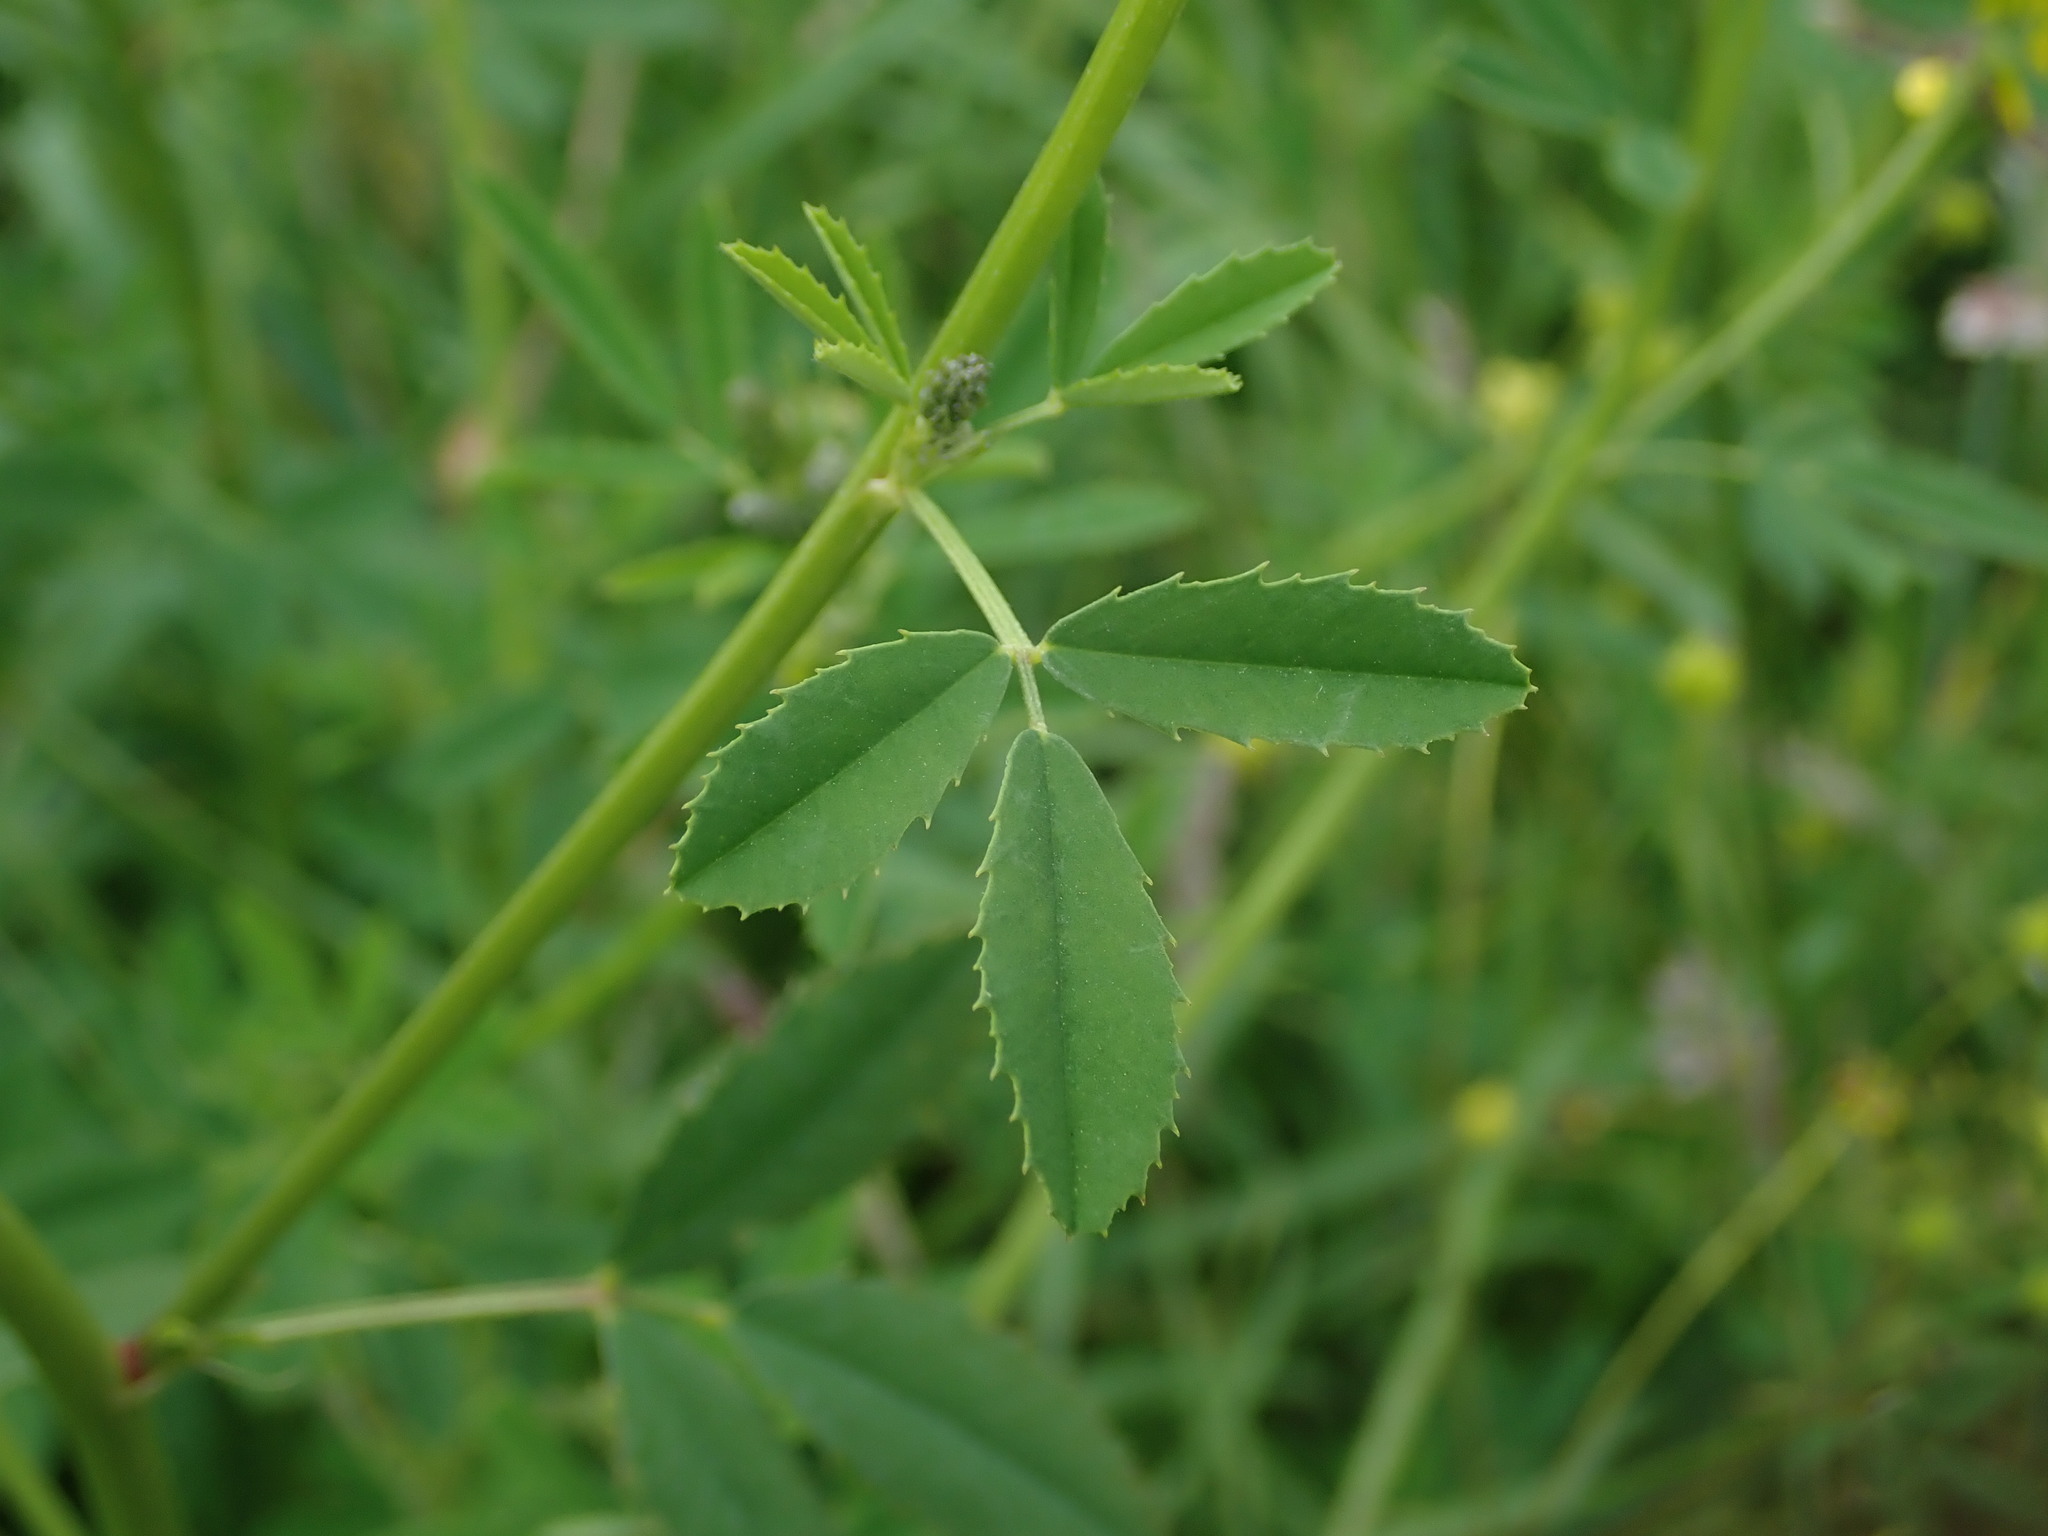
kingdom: Plantae
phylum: Tracheophyta
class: Magnoliopsida
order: Fabales
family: Fabaceae
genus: Melilotus
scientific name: Melilotus officinalis
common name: Sweetclover
